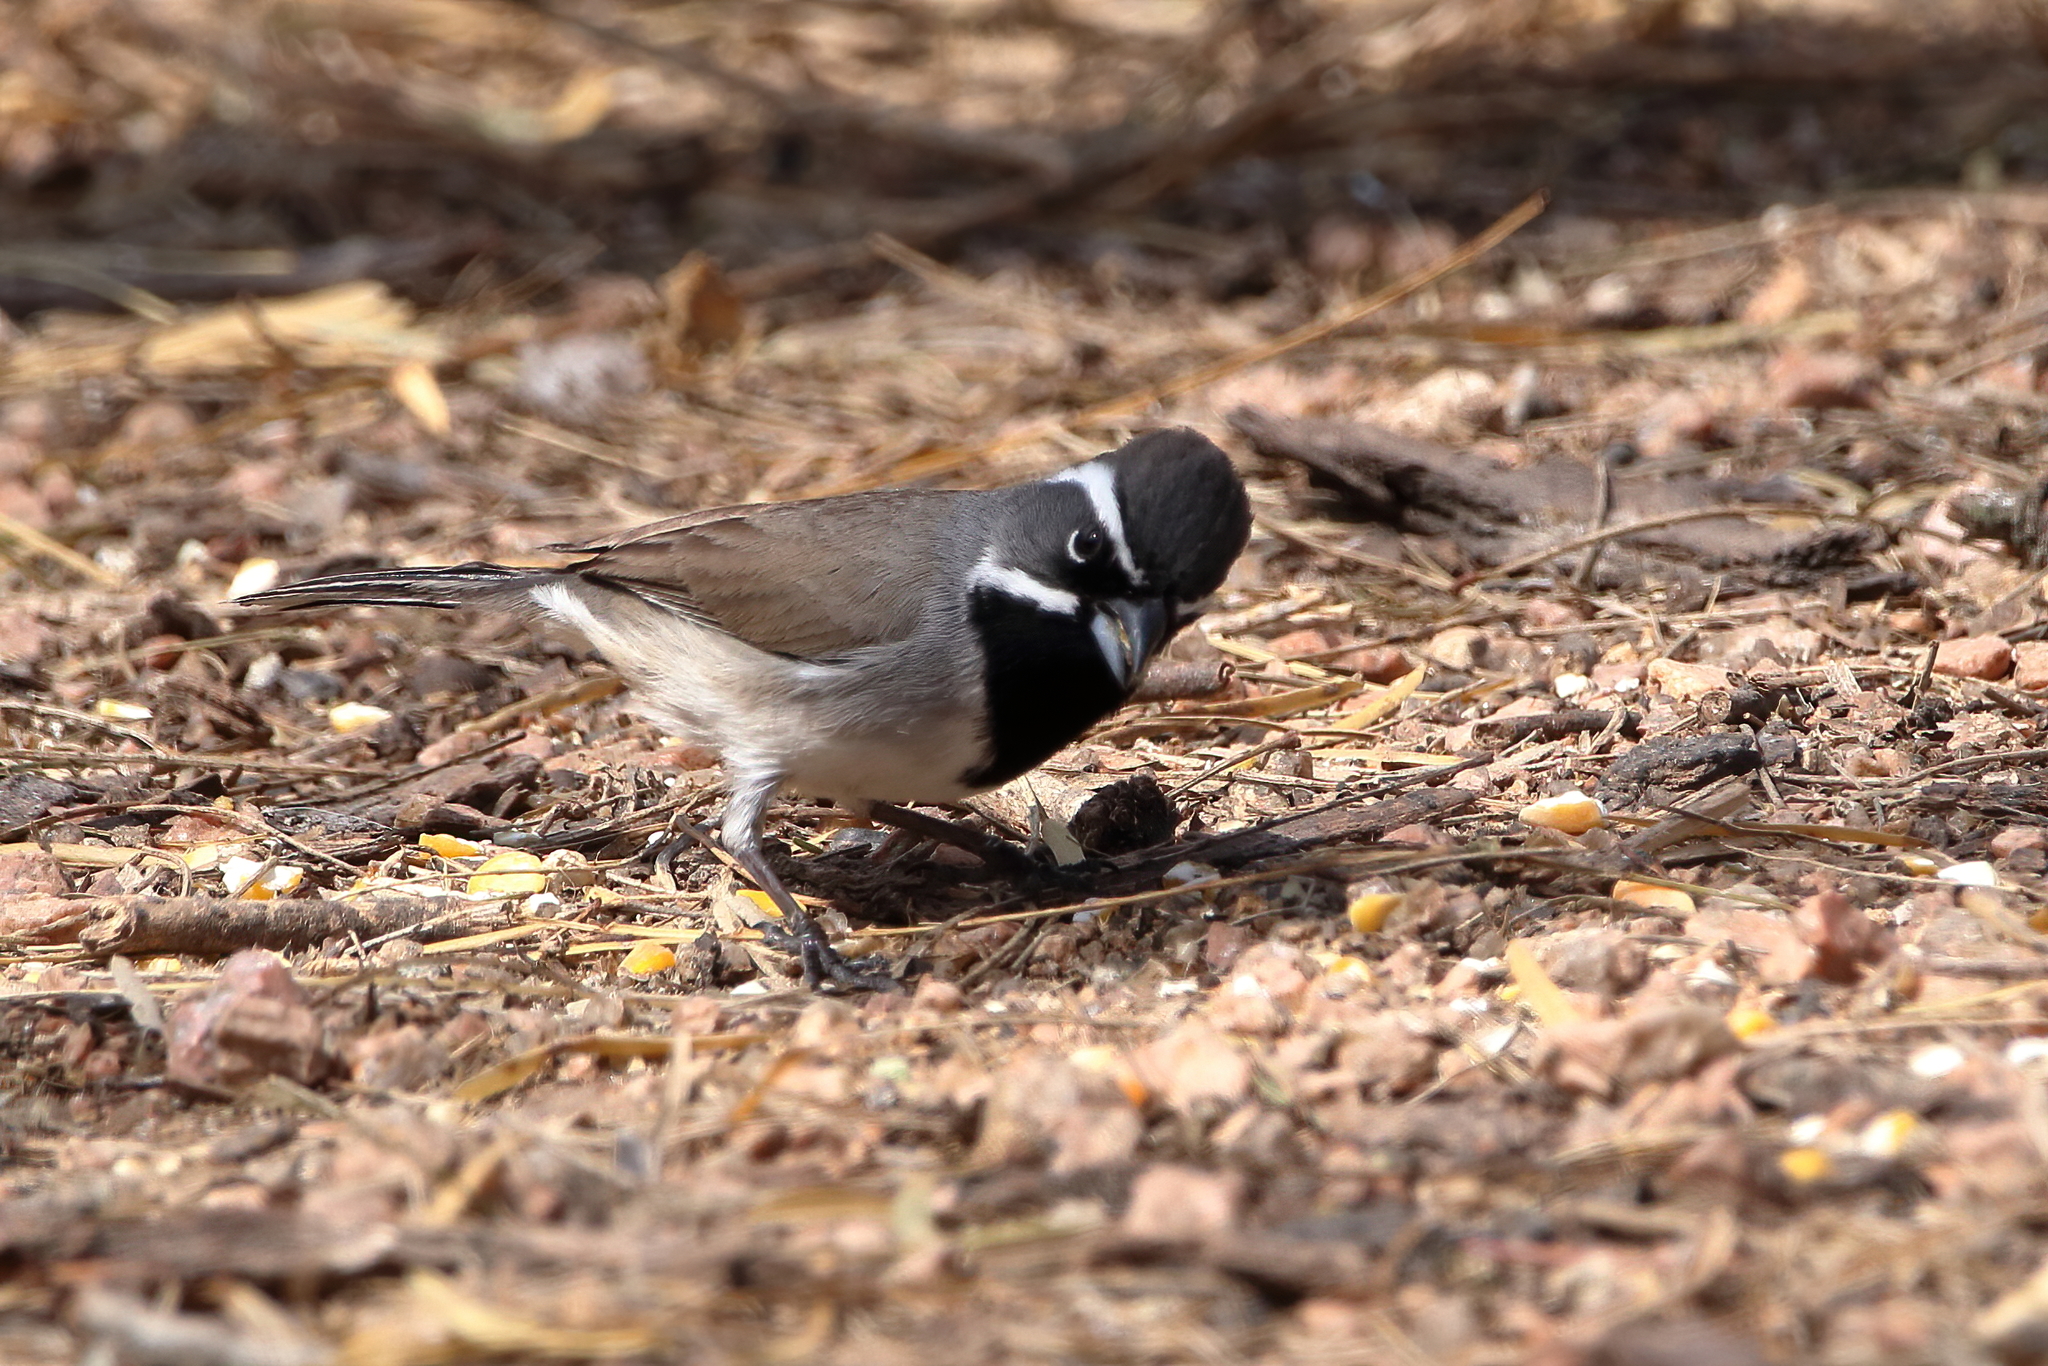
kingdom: Animalia
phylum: Chordata
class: Aves
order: Passeriformes
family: Passerellidae
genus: Amphispiza
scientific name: Amphispiza bilineata
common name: Black-throated sparrow
